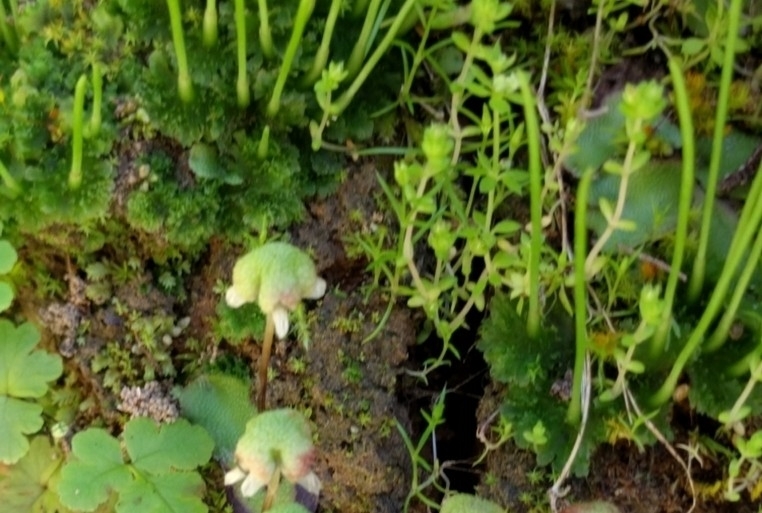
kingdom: Plantae
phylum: Anthocerotophyta
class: Anthocerotopsida
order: Anthocerotales
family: Anthocerotaceae
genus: Anthoceros
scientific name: Anthoceros fusiformis
